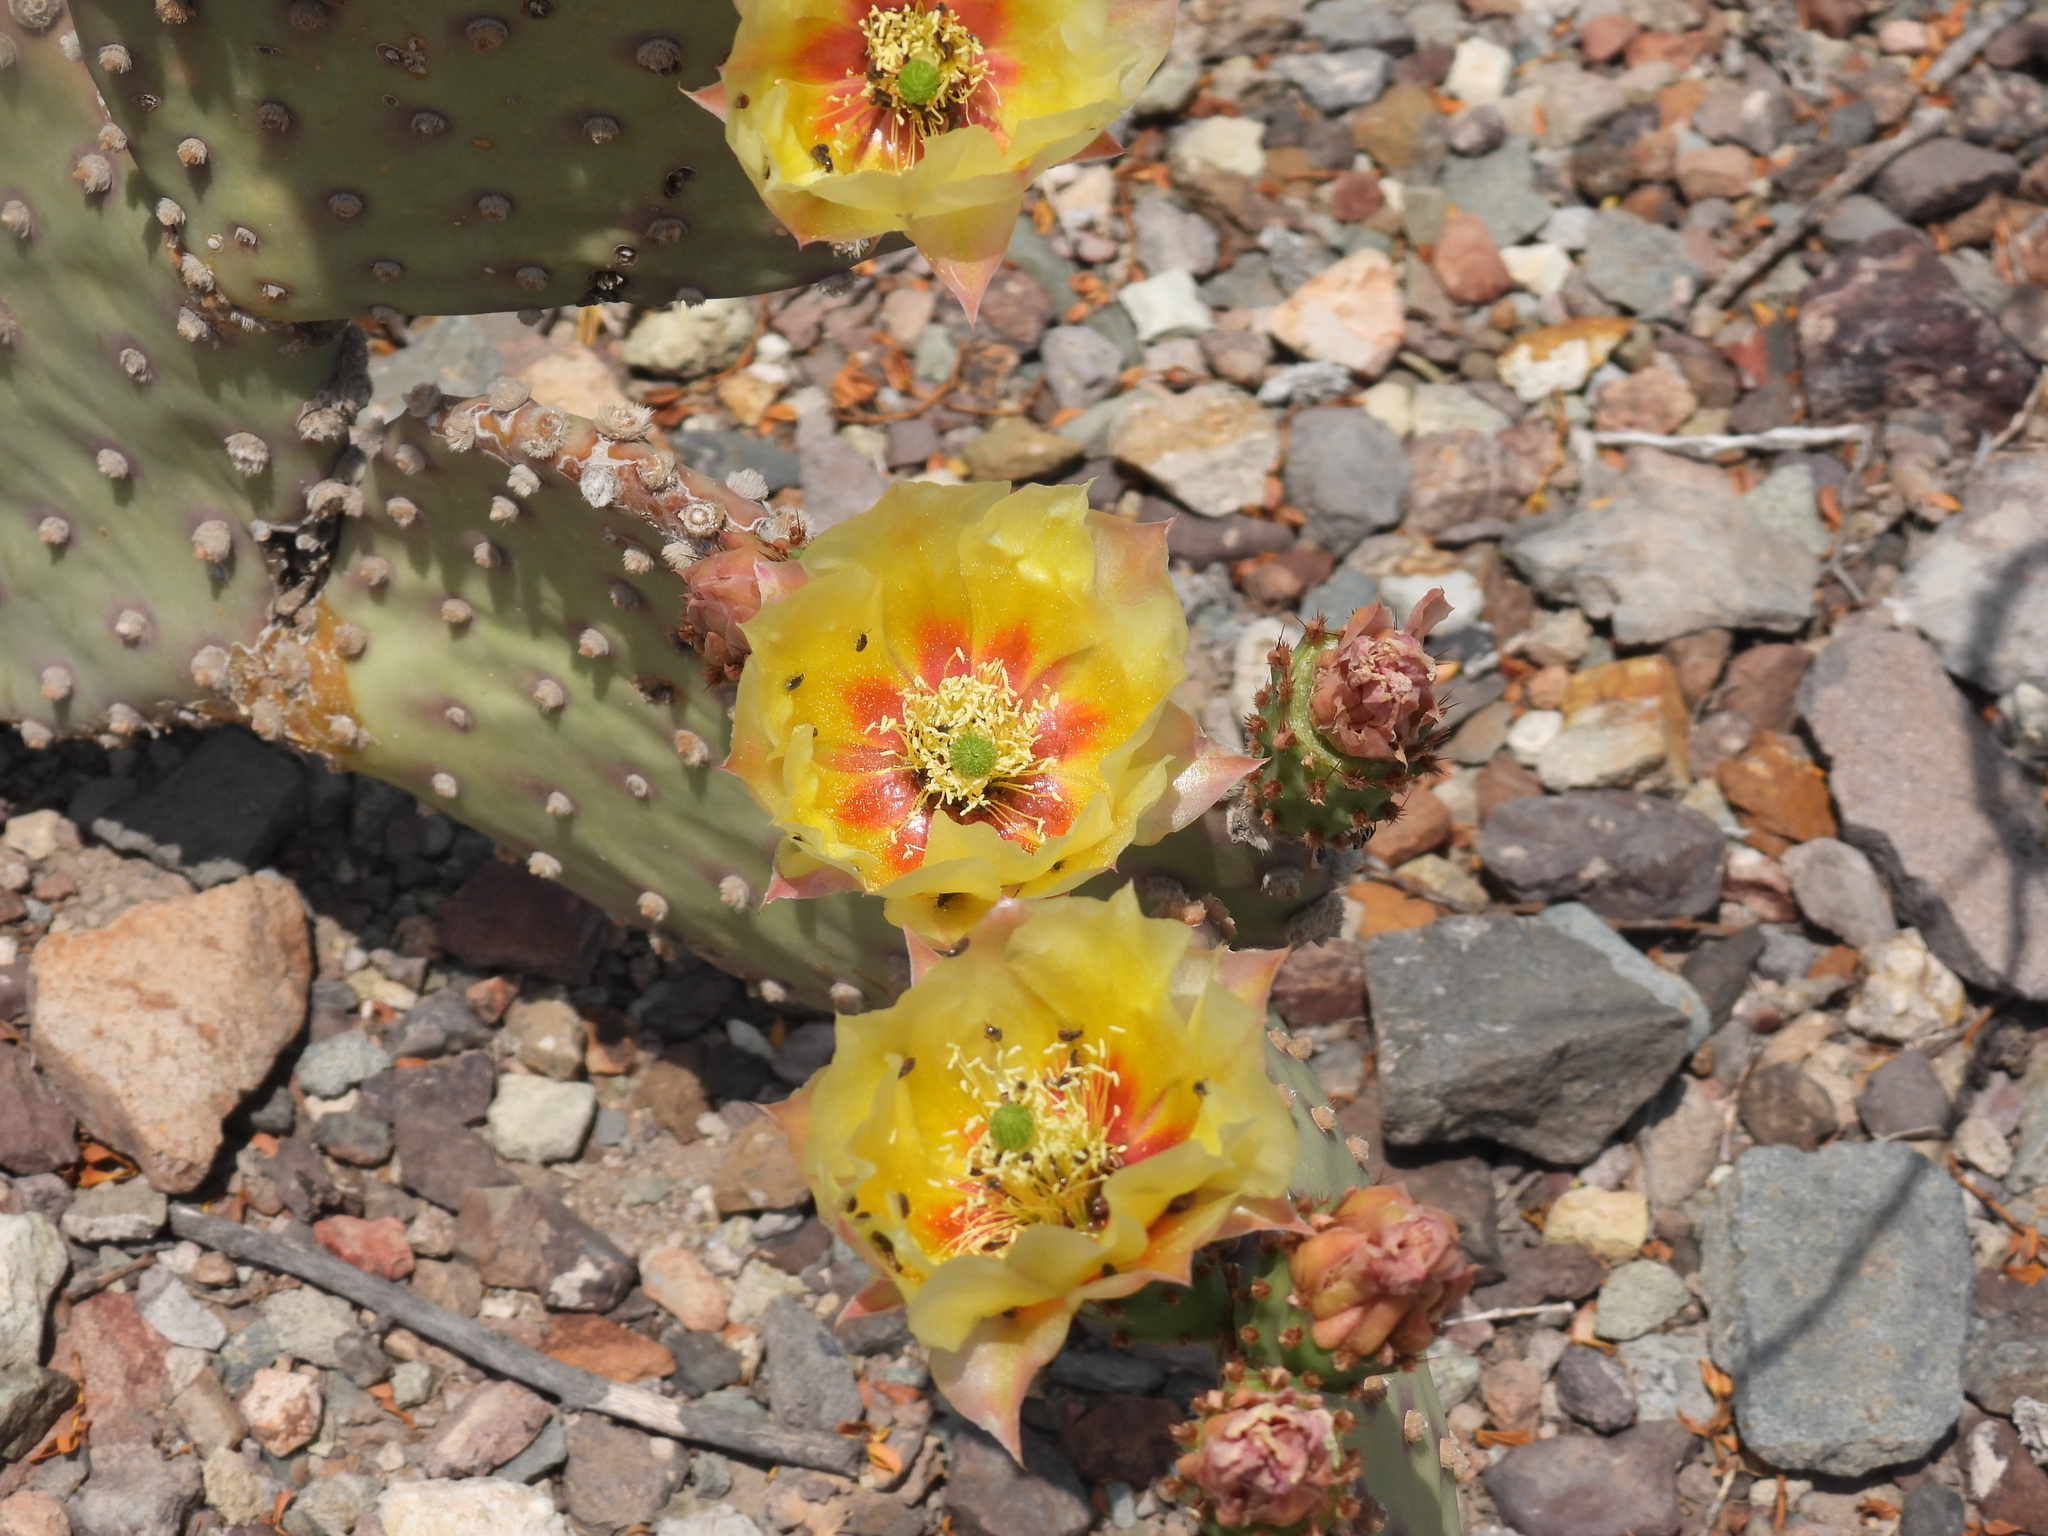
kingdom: Plantae
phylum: Tracheophyta
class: Magnoliopsida
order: Caryophyllales
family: Cactaceae
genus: Opuntia
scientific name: Opuntia rufida
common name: Blind pricklypear
